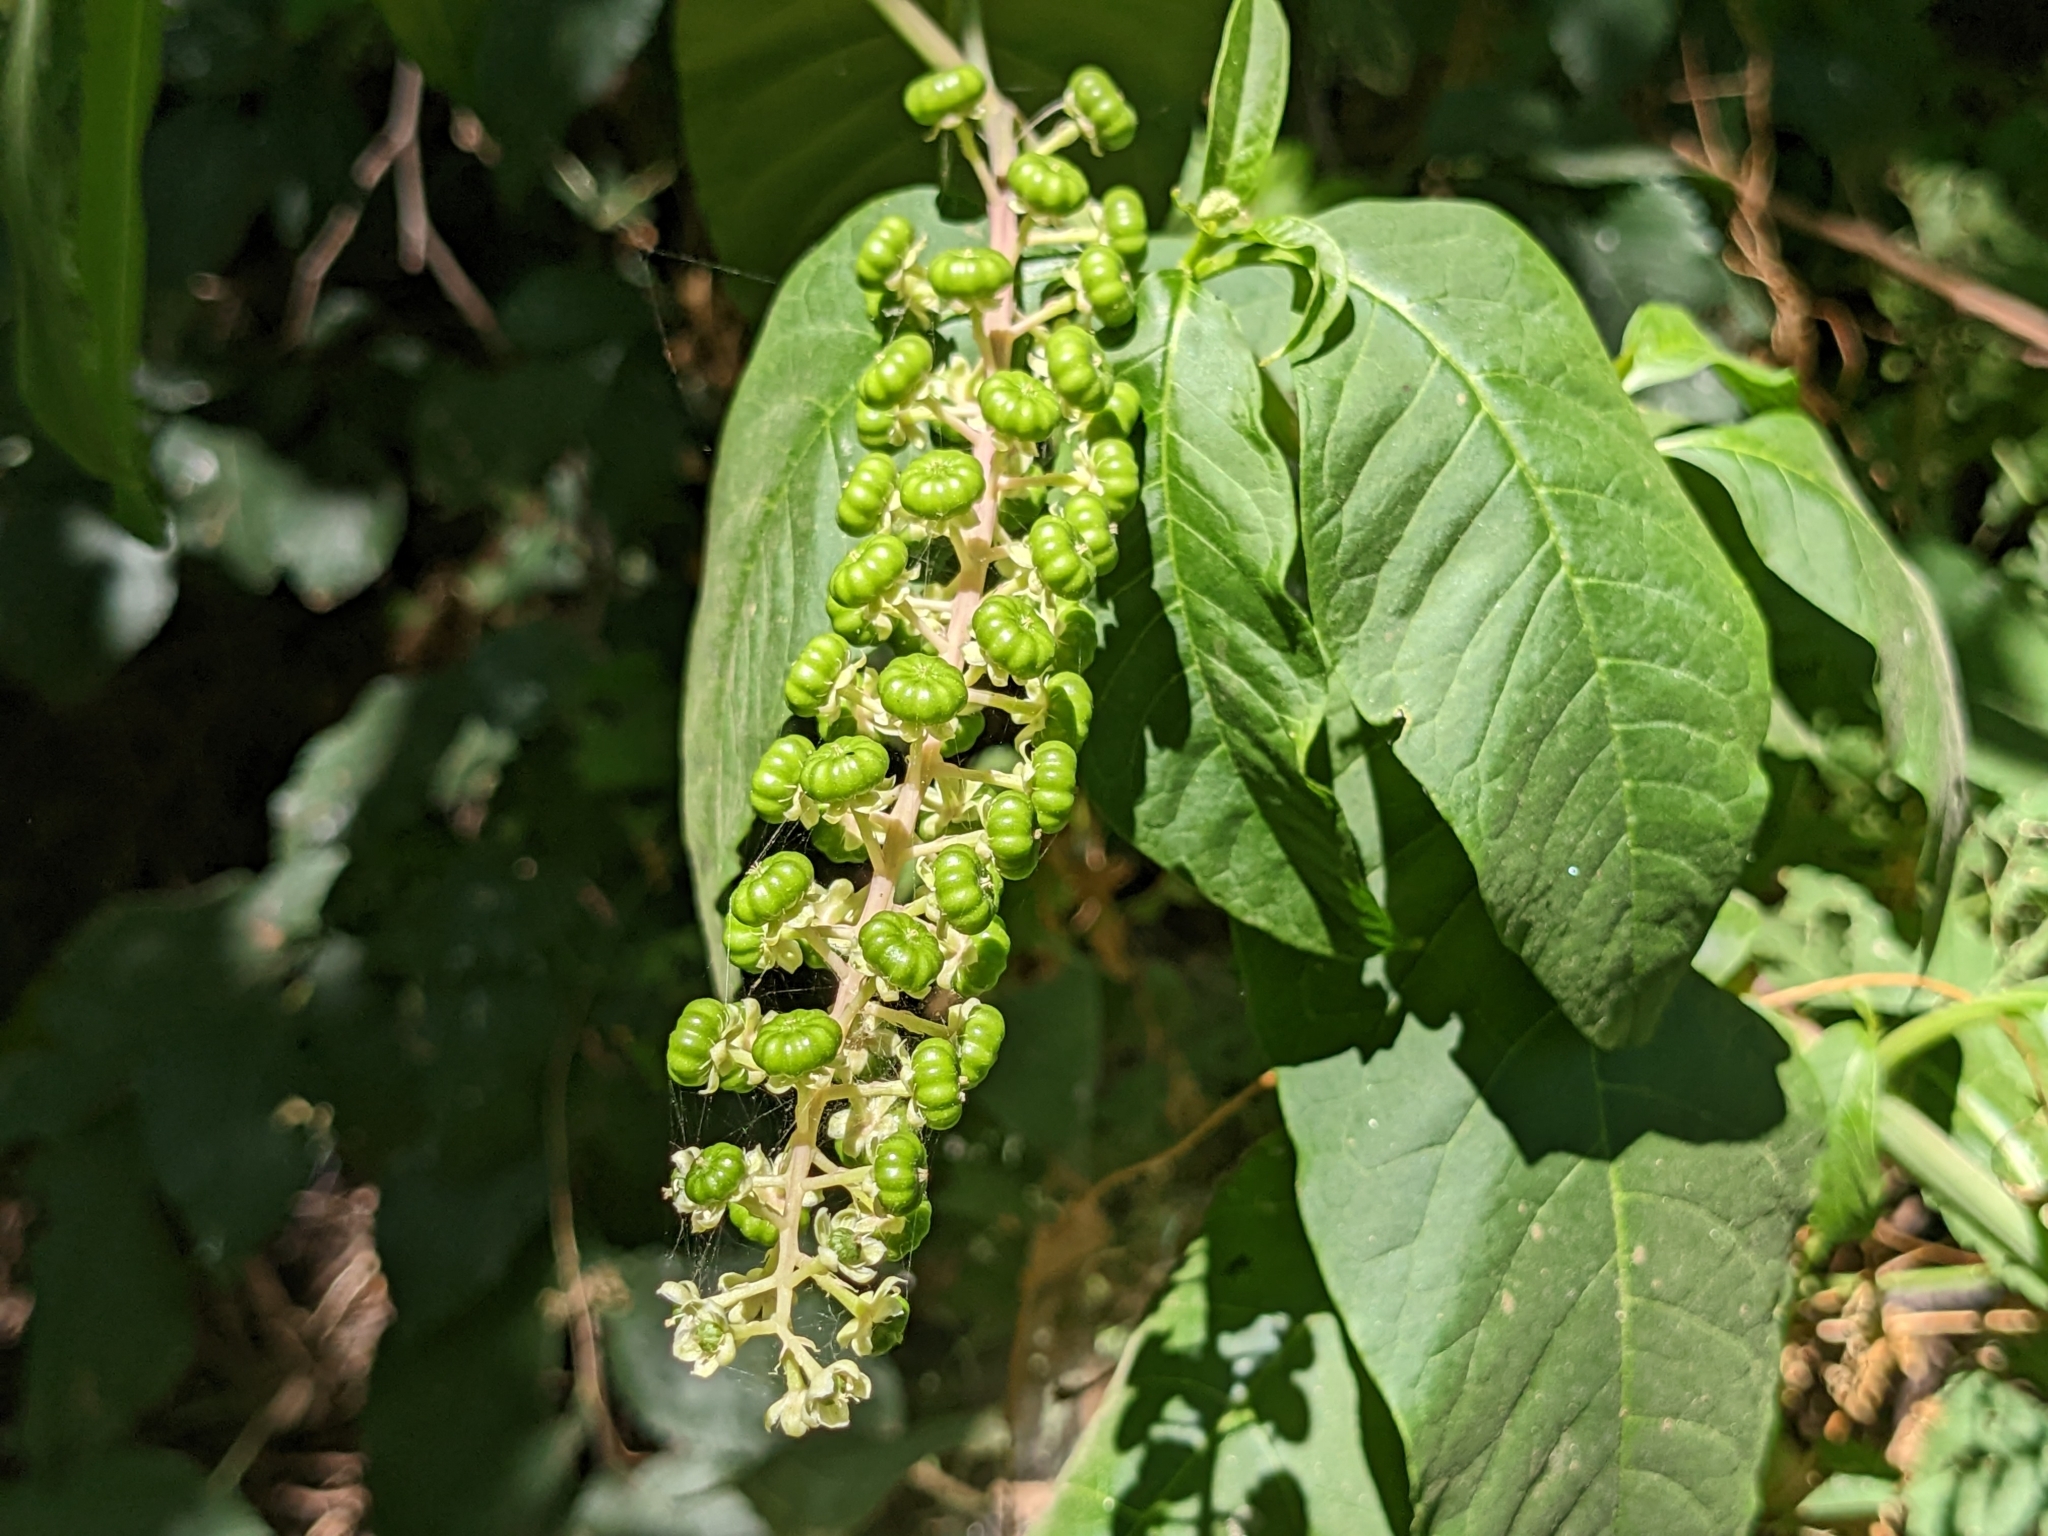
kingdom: Plantae
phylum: Tracheophyta
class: Magnoliopsida
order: Caryophyllales
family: Phytolaccaceae
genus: Phytolacca
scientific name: Phytolacca americana
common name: American pokeweed
